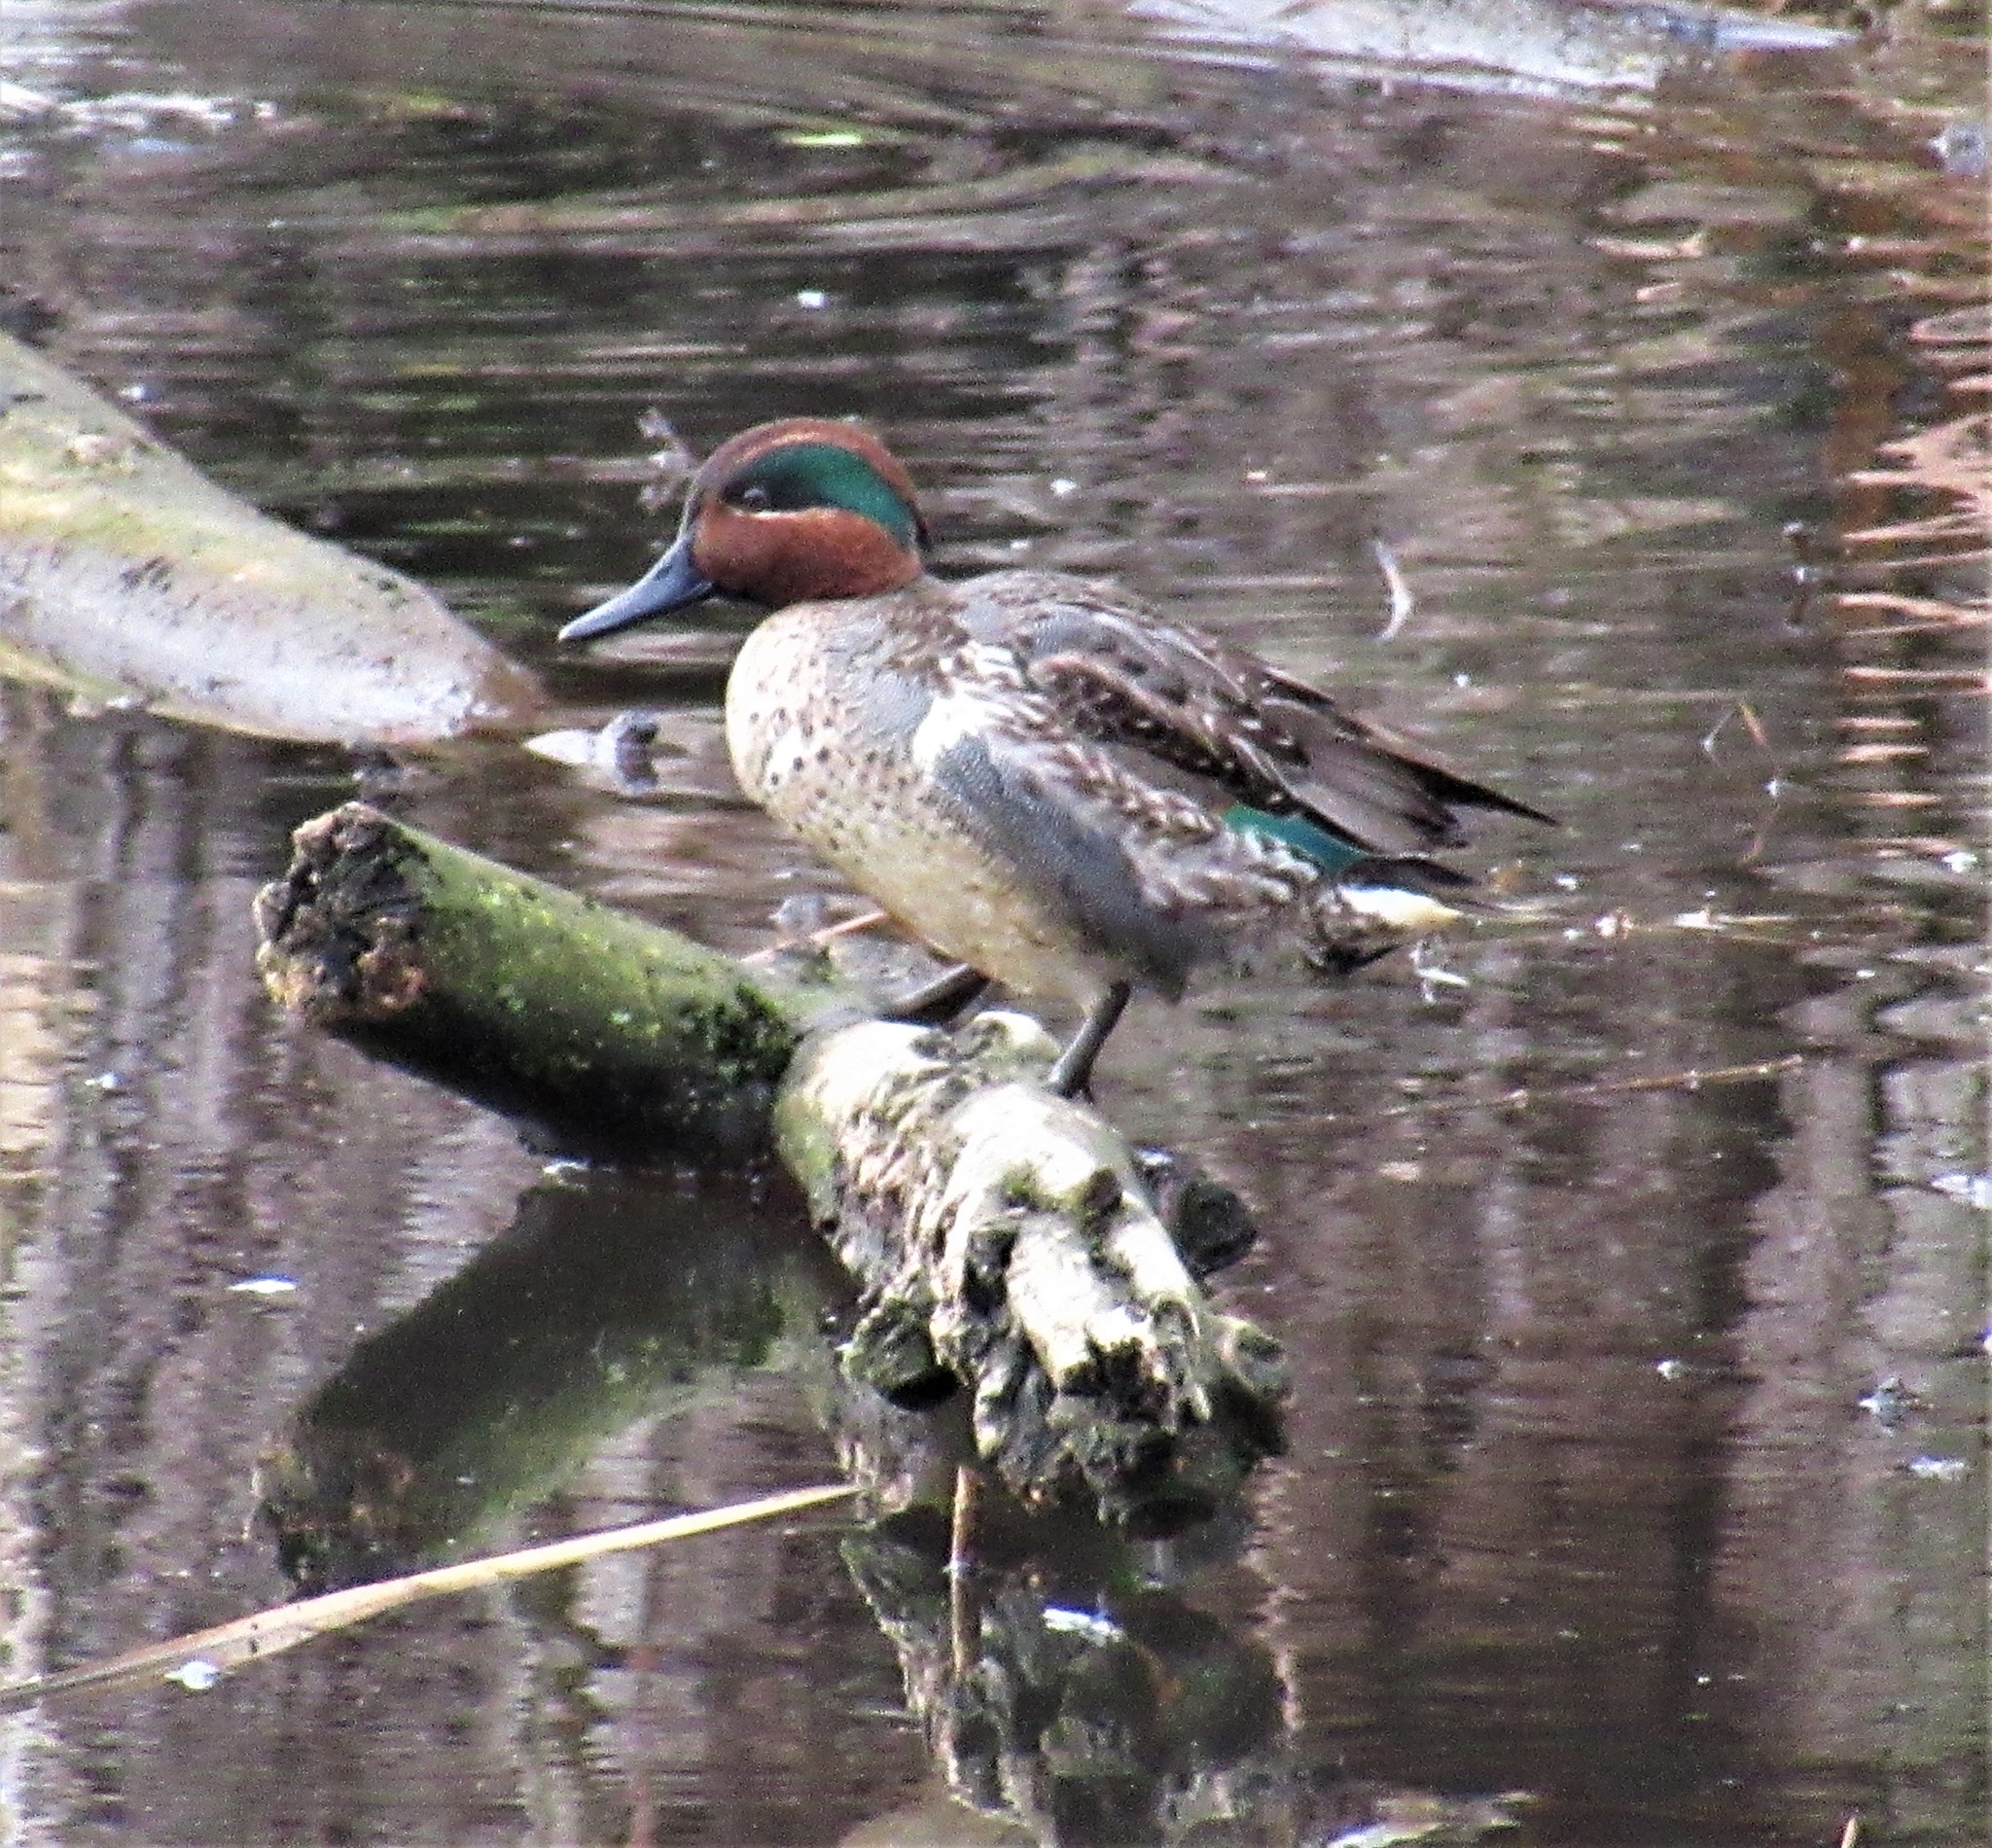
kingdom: Animalia
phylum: Chordata
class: Aves
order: Anseriformes
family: Anatidae
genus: Anas
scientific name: Anas crecca
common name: Eurasian teal
